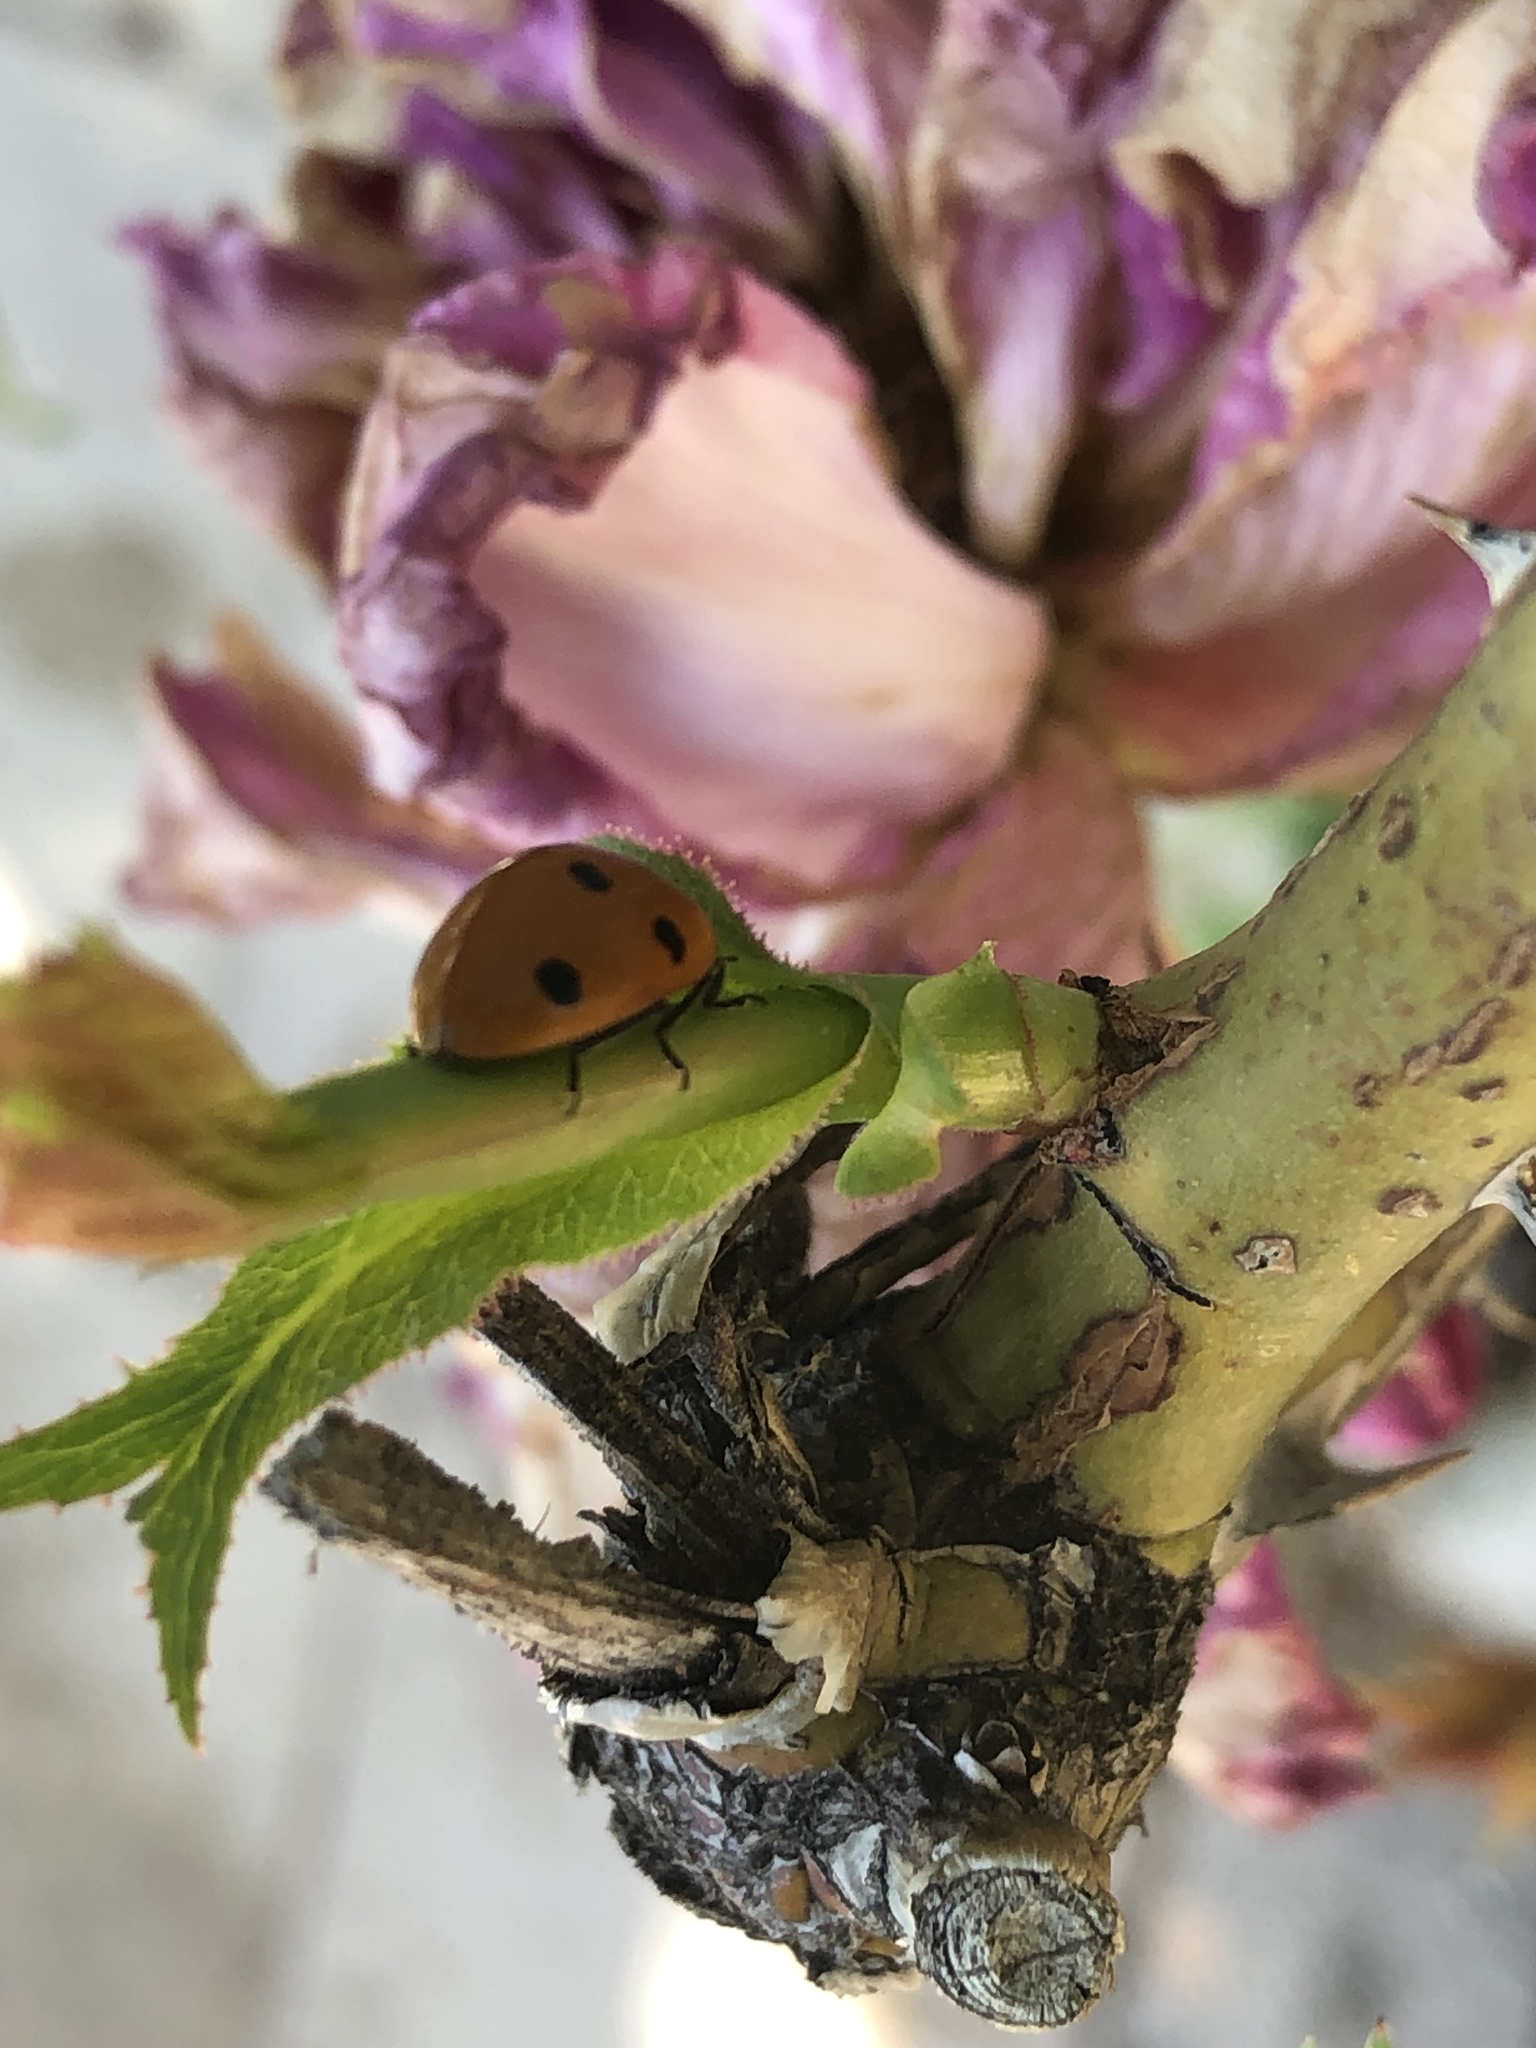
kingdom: Animalia
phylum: Arthropoda
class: Insecta
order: Coleoptera
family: Coccinellidae
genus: Coccinella
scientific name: Coccinella septempunctata
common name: Sevenspotted lady beetle
